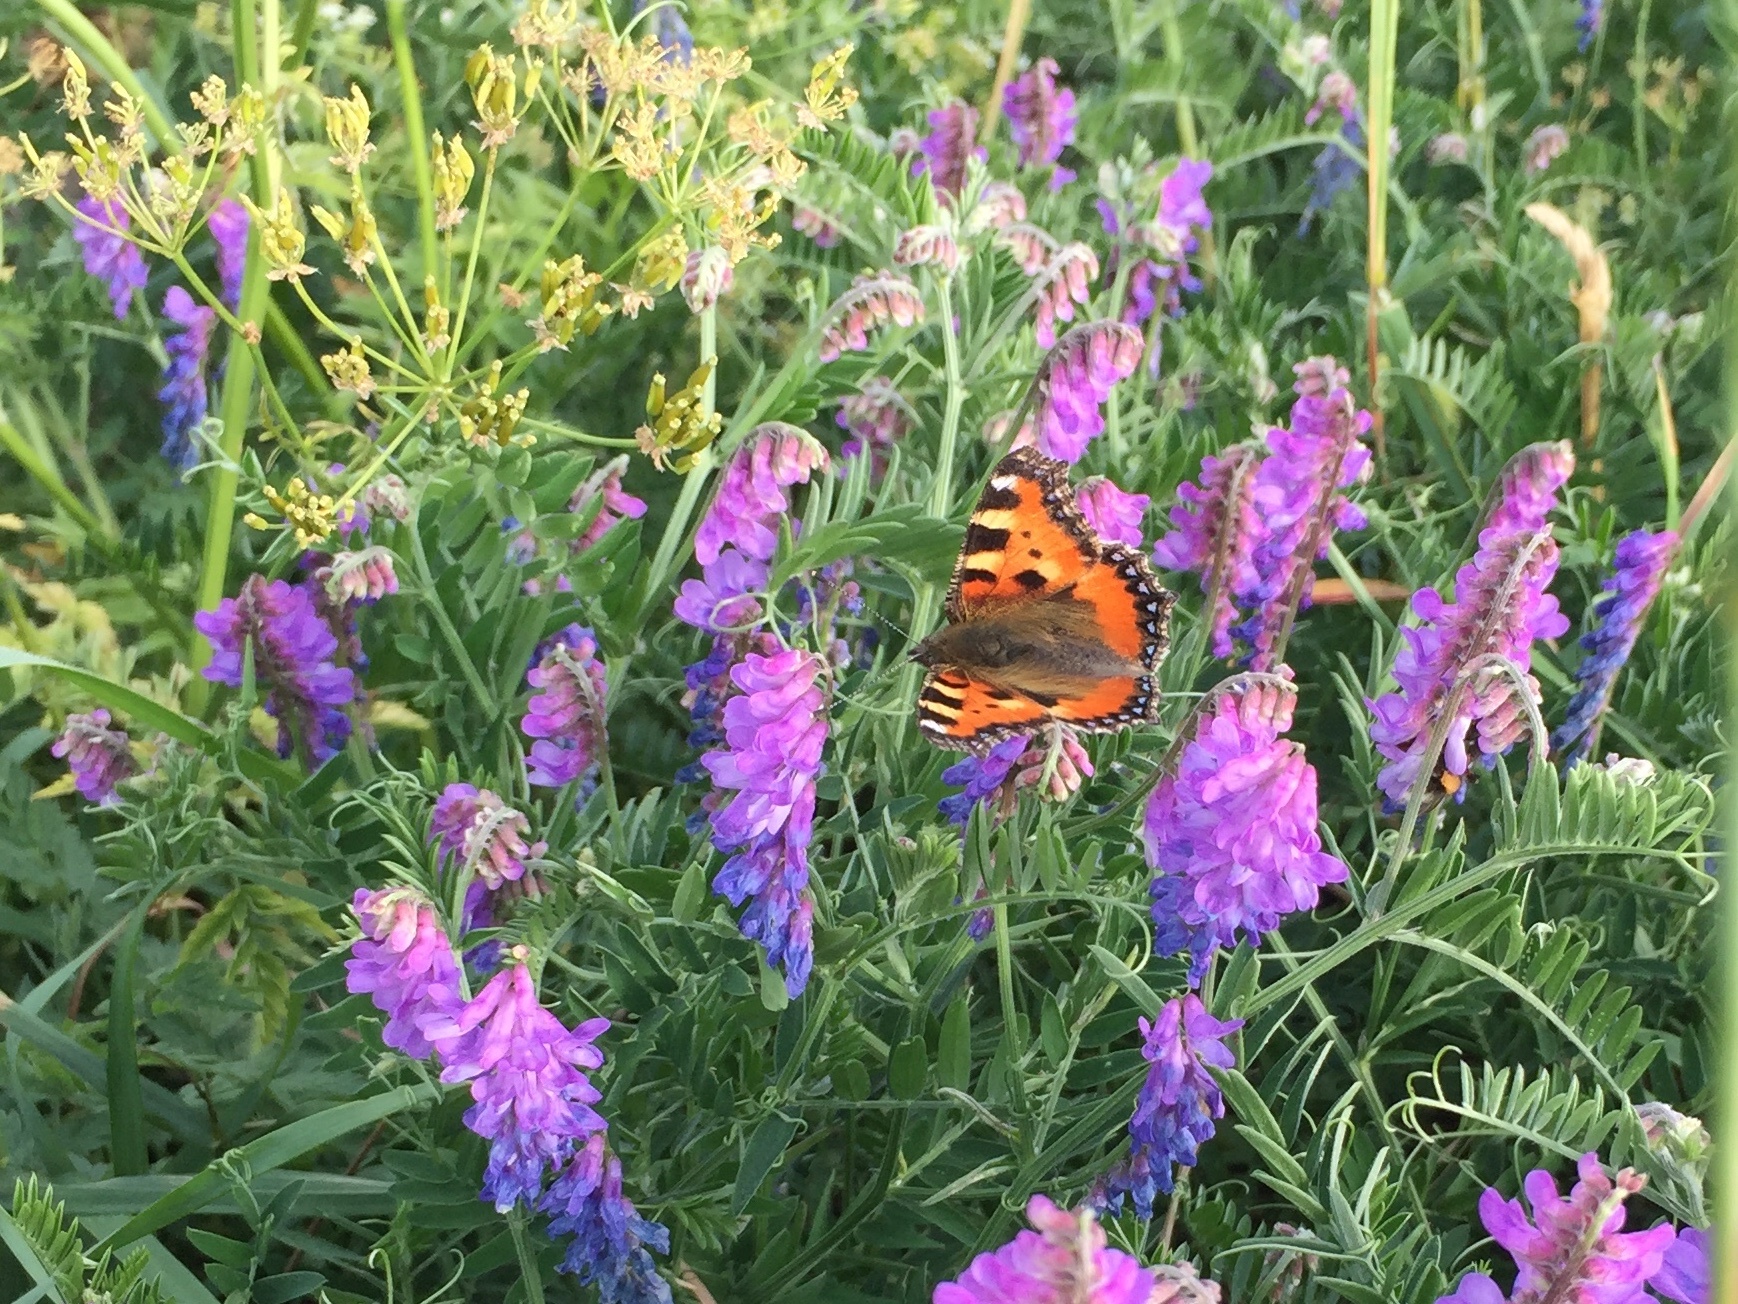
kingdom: Animalia
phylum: Arthropoda
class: Insecta
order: Lepidoptera
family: Nymphalidae
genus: Aglais
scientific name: Aglais urticae
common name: Small tortoiseshell
